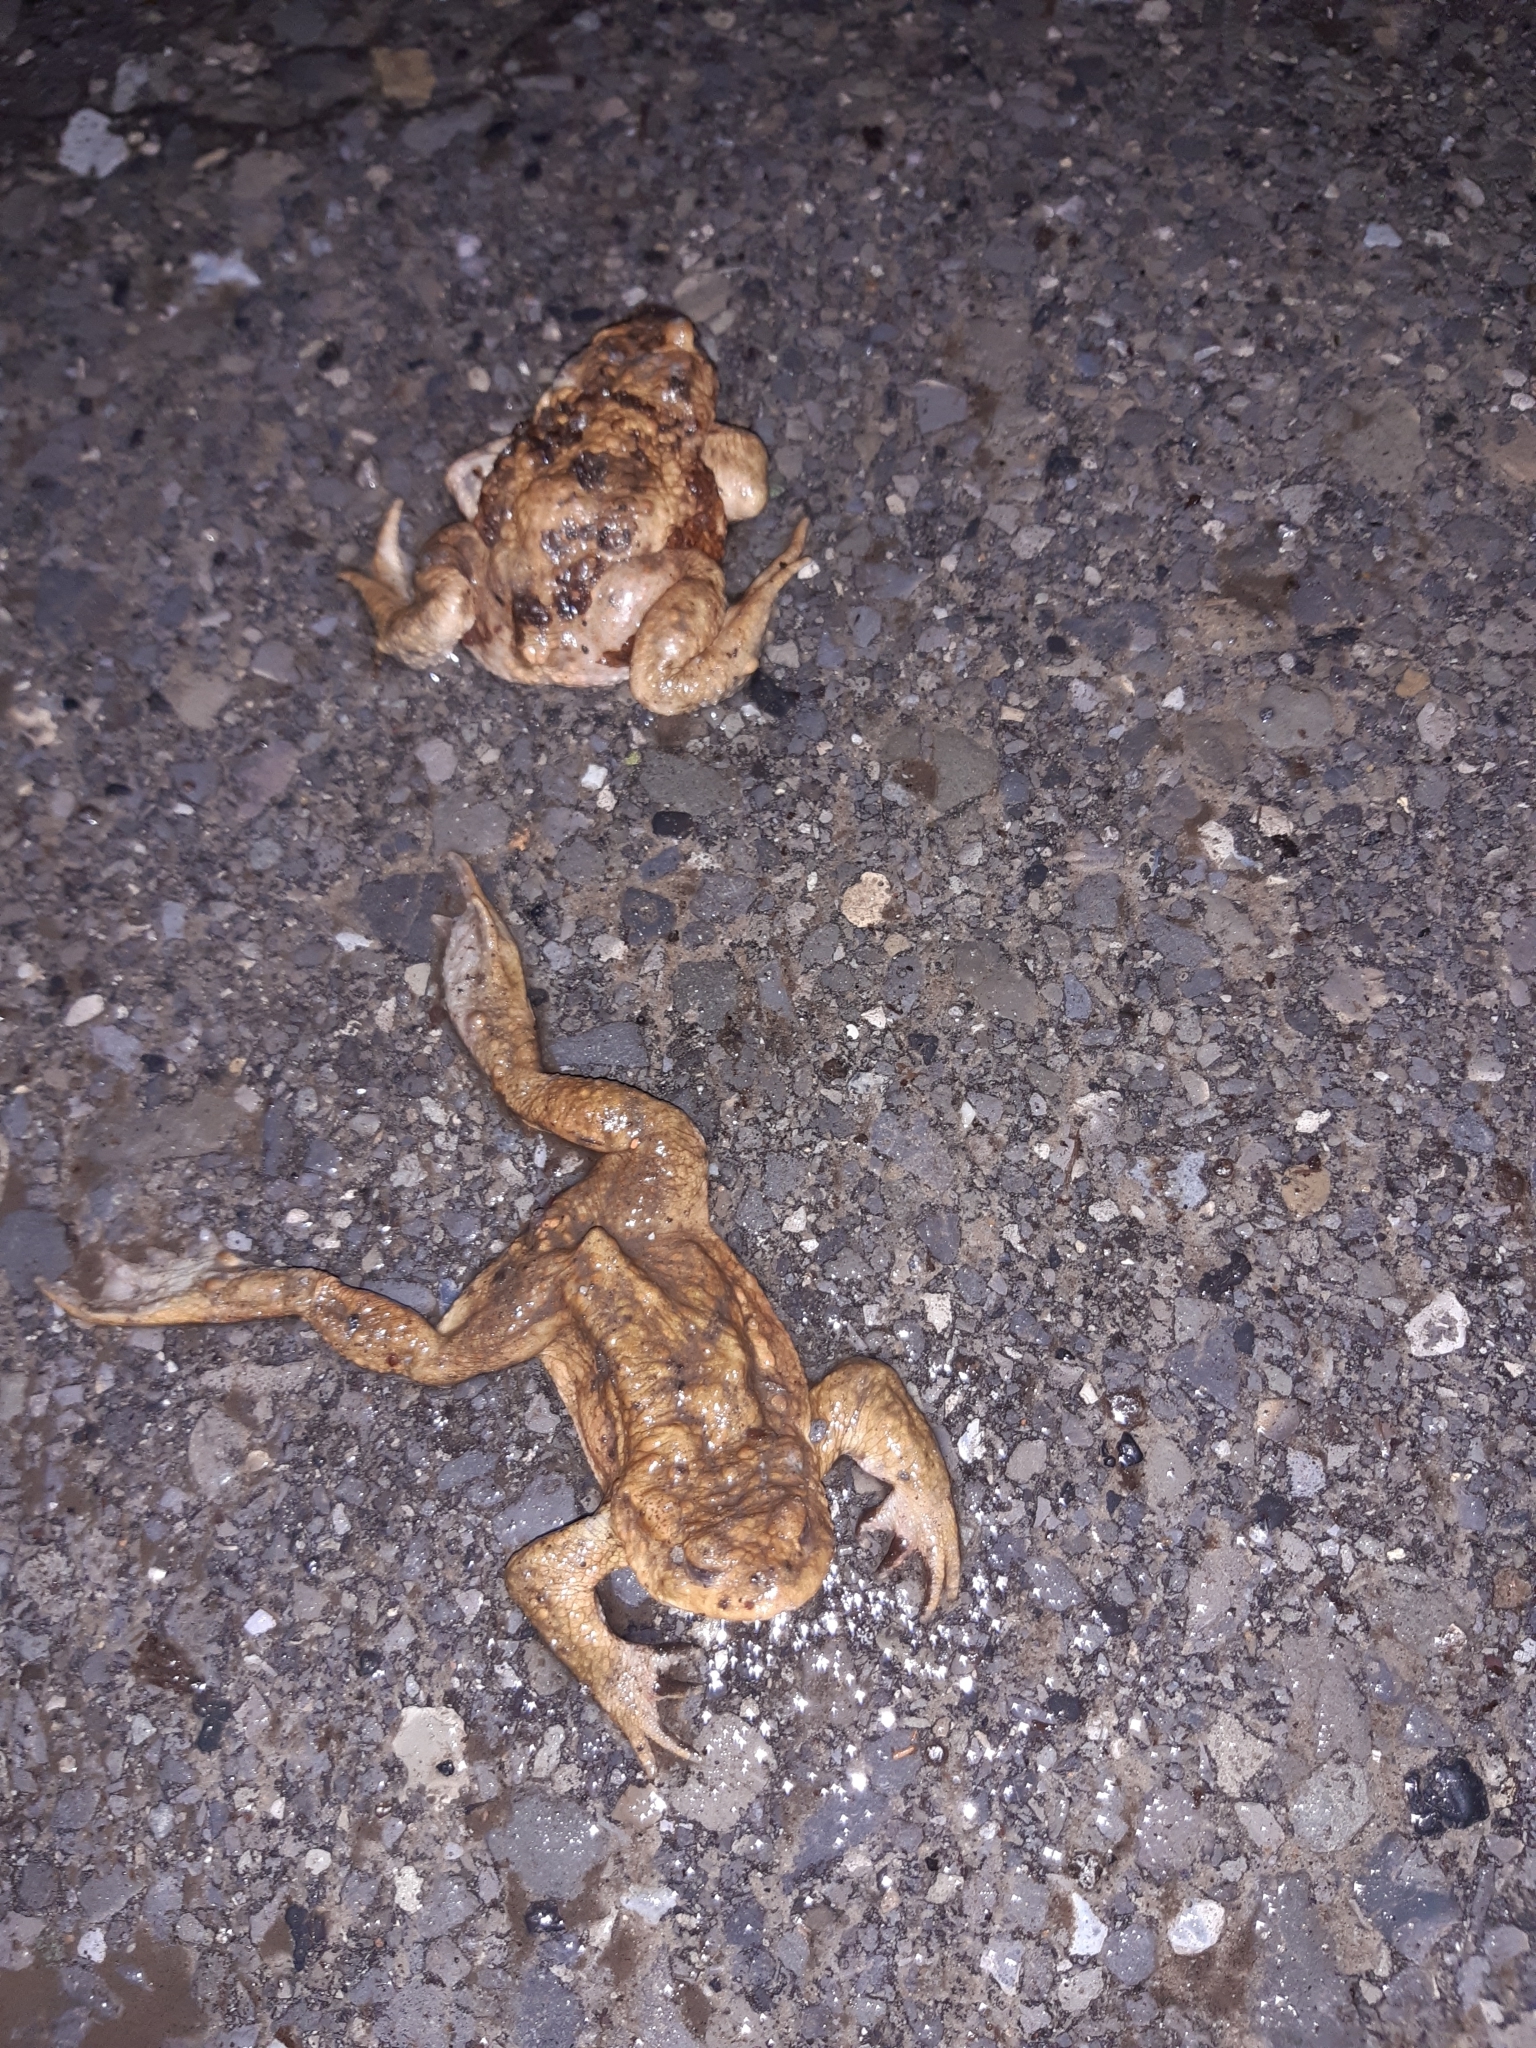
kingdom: Animalia
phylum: Chordata
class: Amphibia
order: Anura
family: Bufonidae
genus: Bufo
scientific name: Bufo bufo
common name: Common toad
